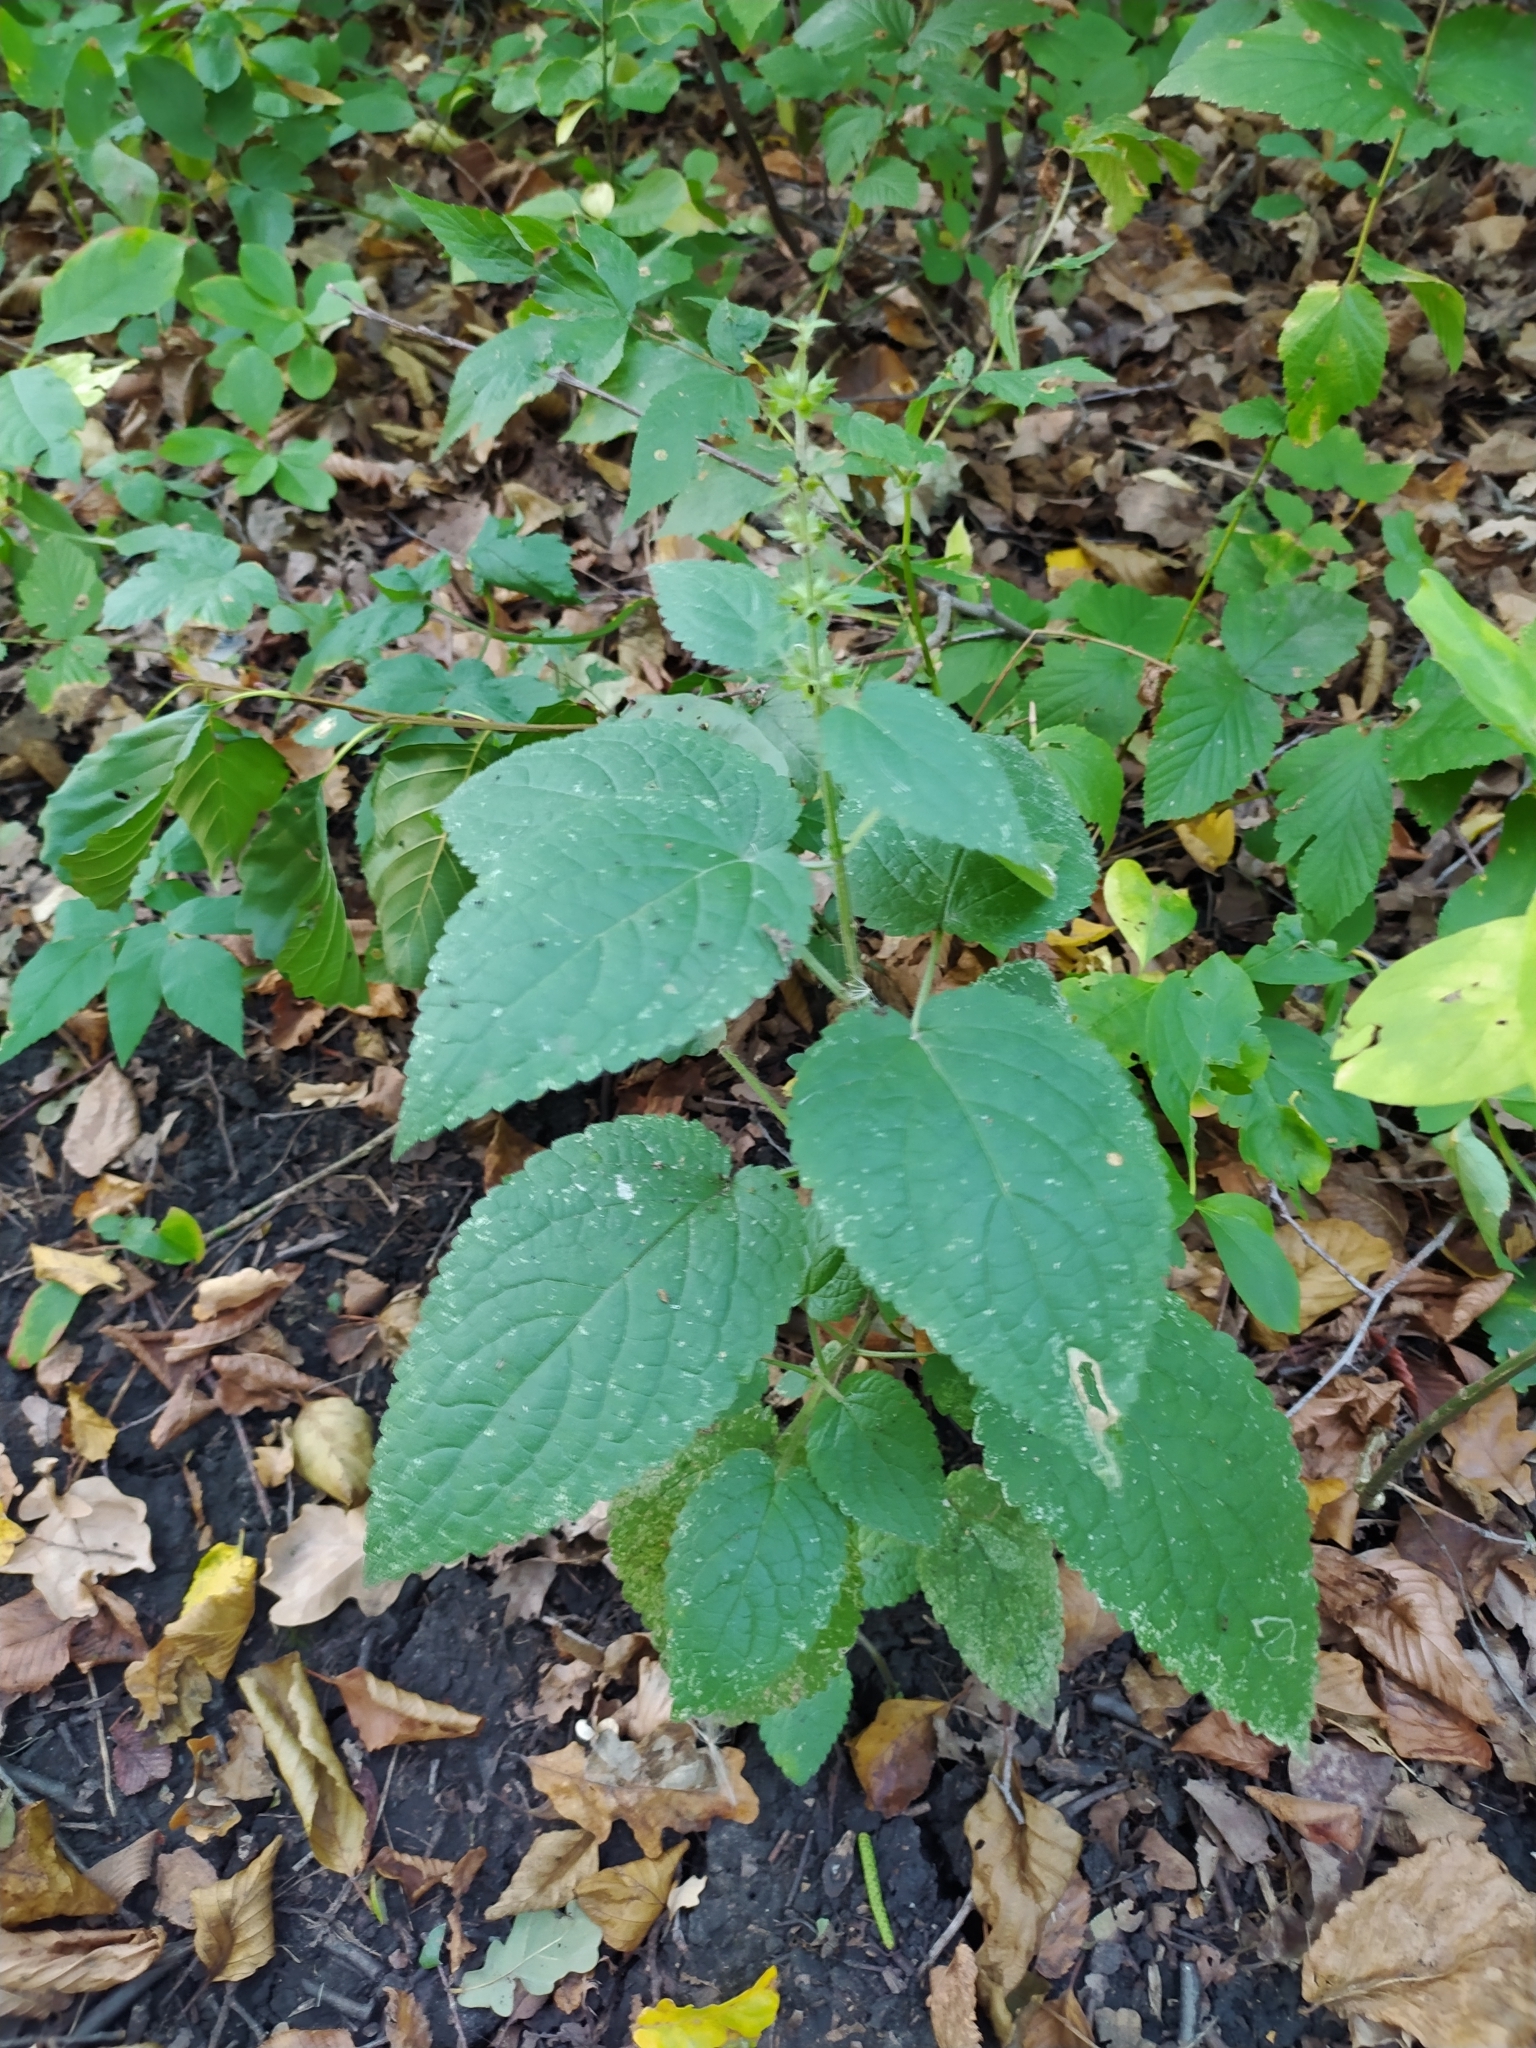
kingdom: Plantae
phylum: Tracheophyta
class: Magnoliopsida
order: Lamiales
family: Lamiaceae
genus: Stachys
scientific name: Stachys sylvatica
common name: Hedge woundwort
